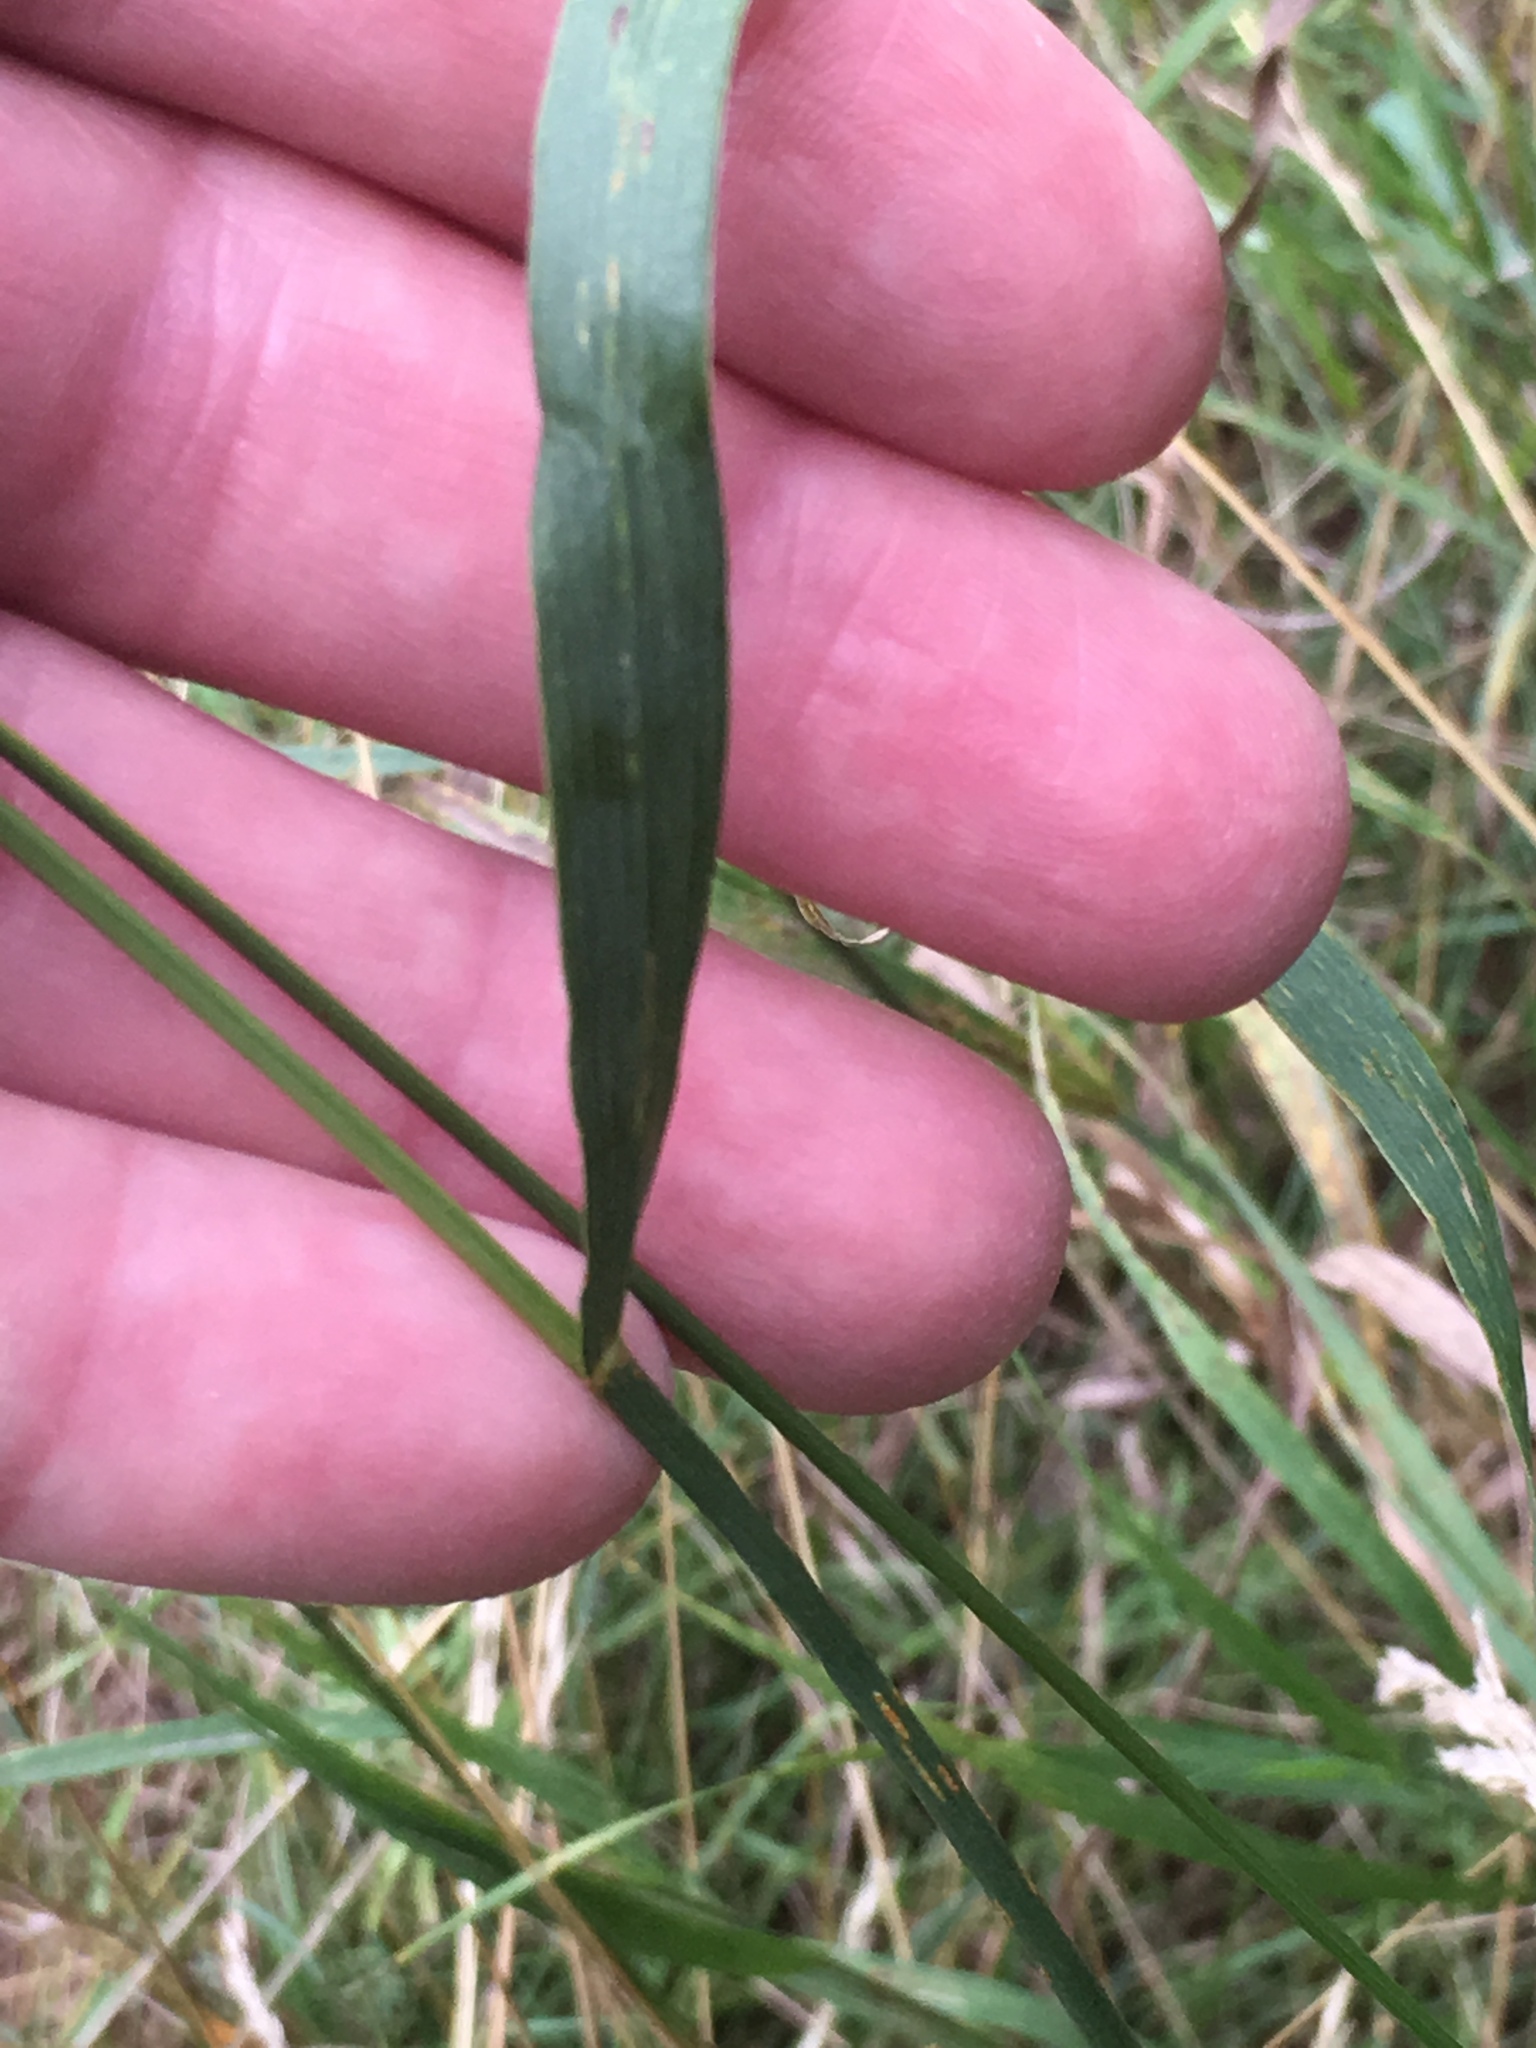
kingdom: Plantae
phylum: Tracheophyta
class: Liliopsida
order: Poales
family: Poaceae
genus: Bromus
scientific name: Bromus inermis
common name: Smooth brome
